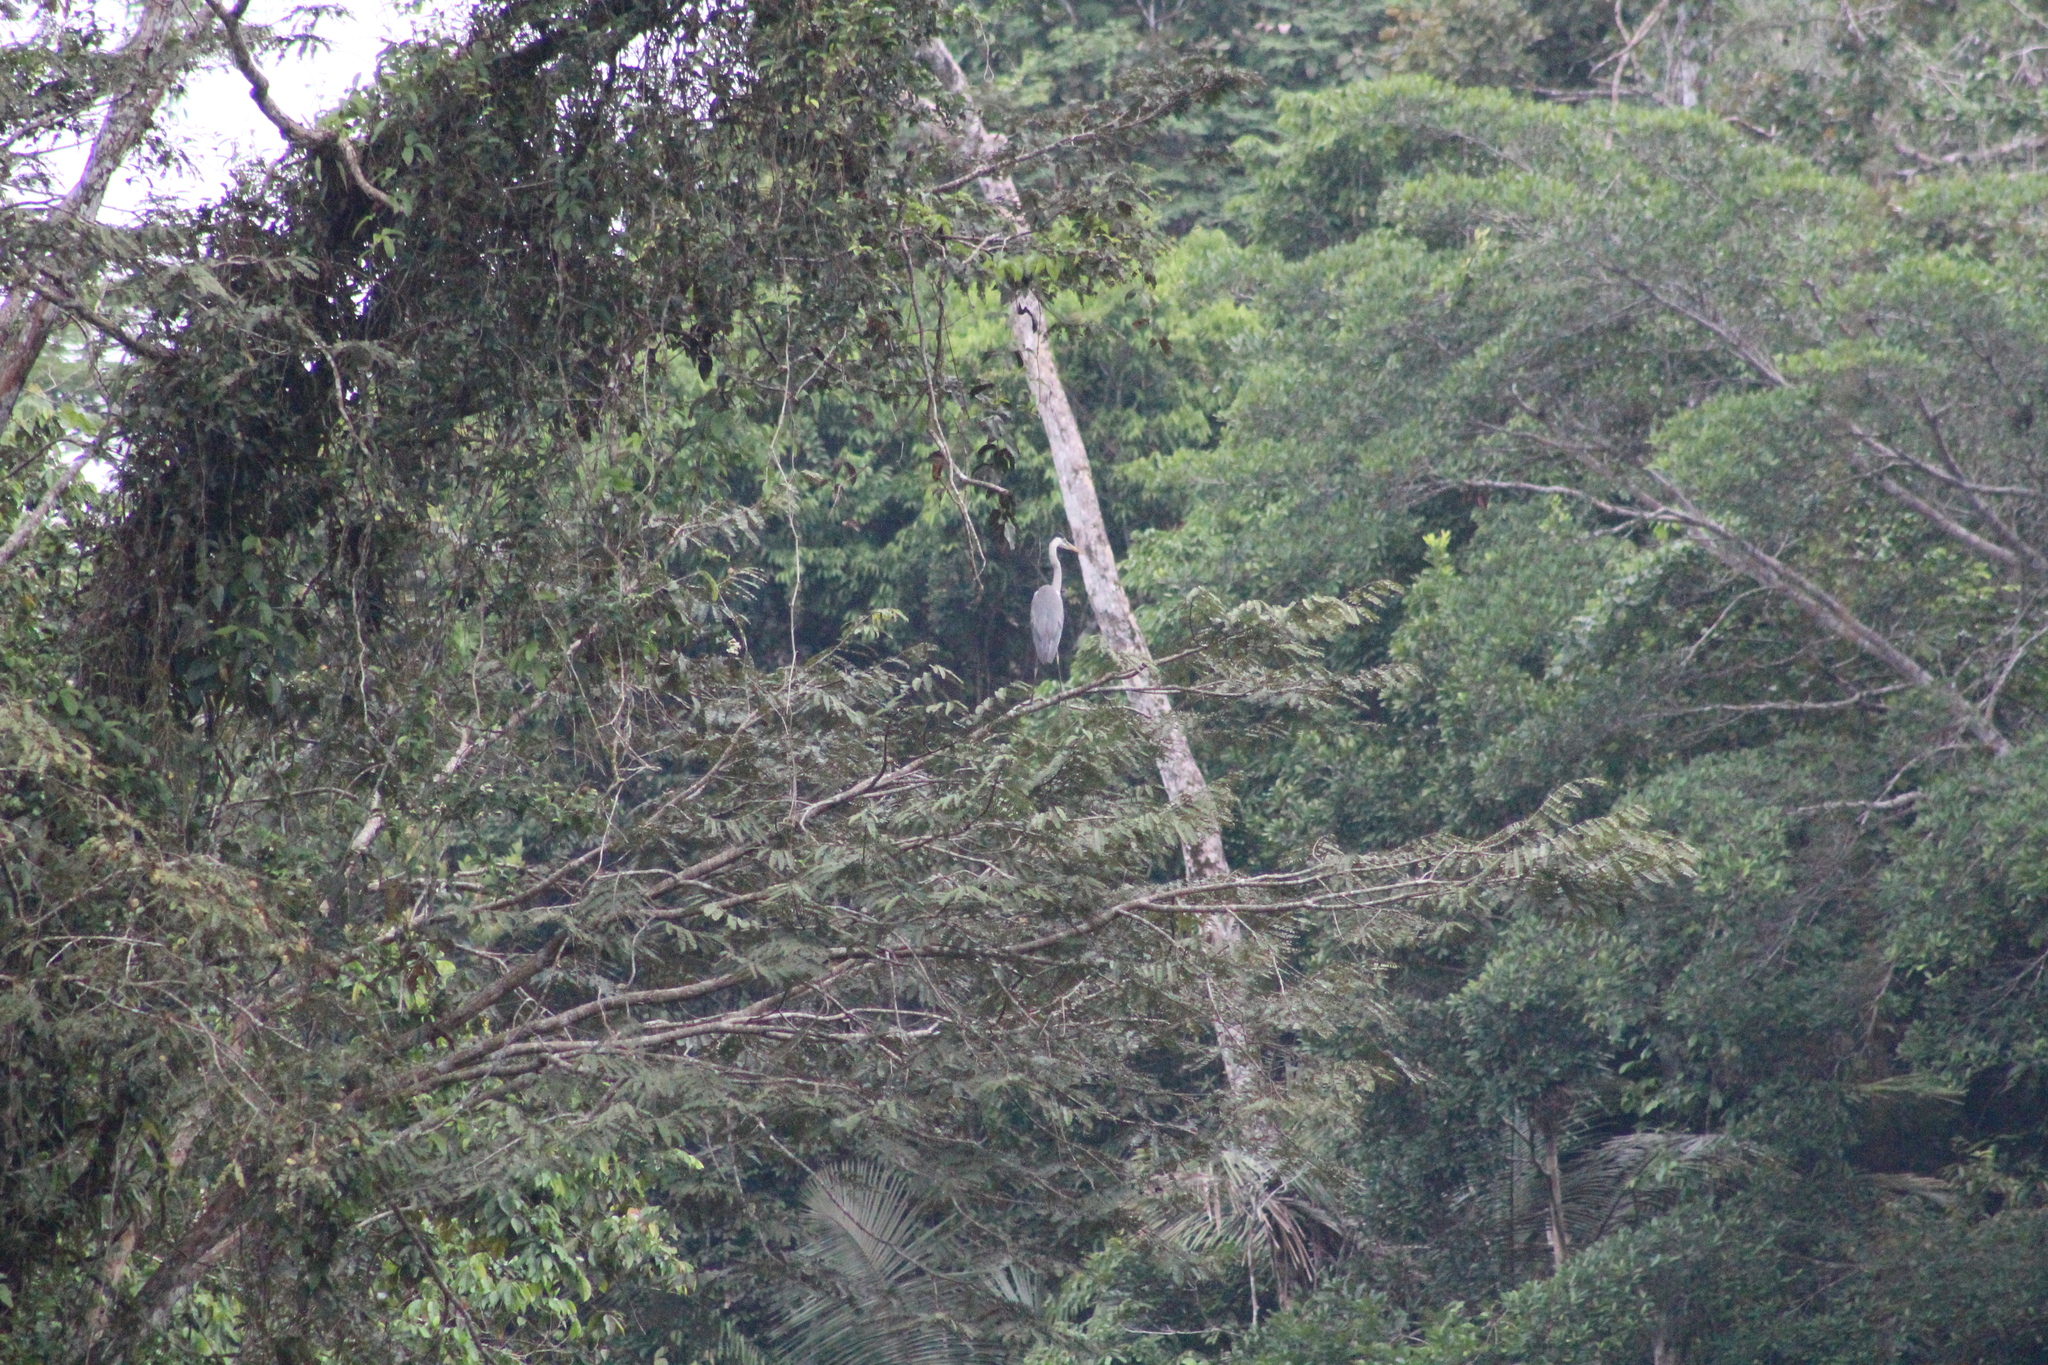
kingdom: Animalia
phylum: Chordata
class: Aves
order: Pelecaniformes
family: Ardeidae
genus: Ardea
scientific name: Ardea cocoi
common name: Cocoi heron
